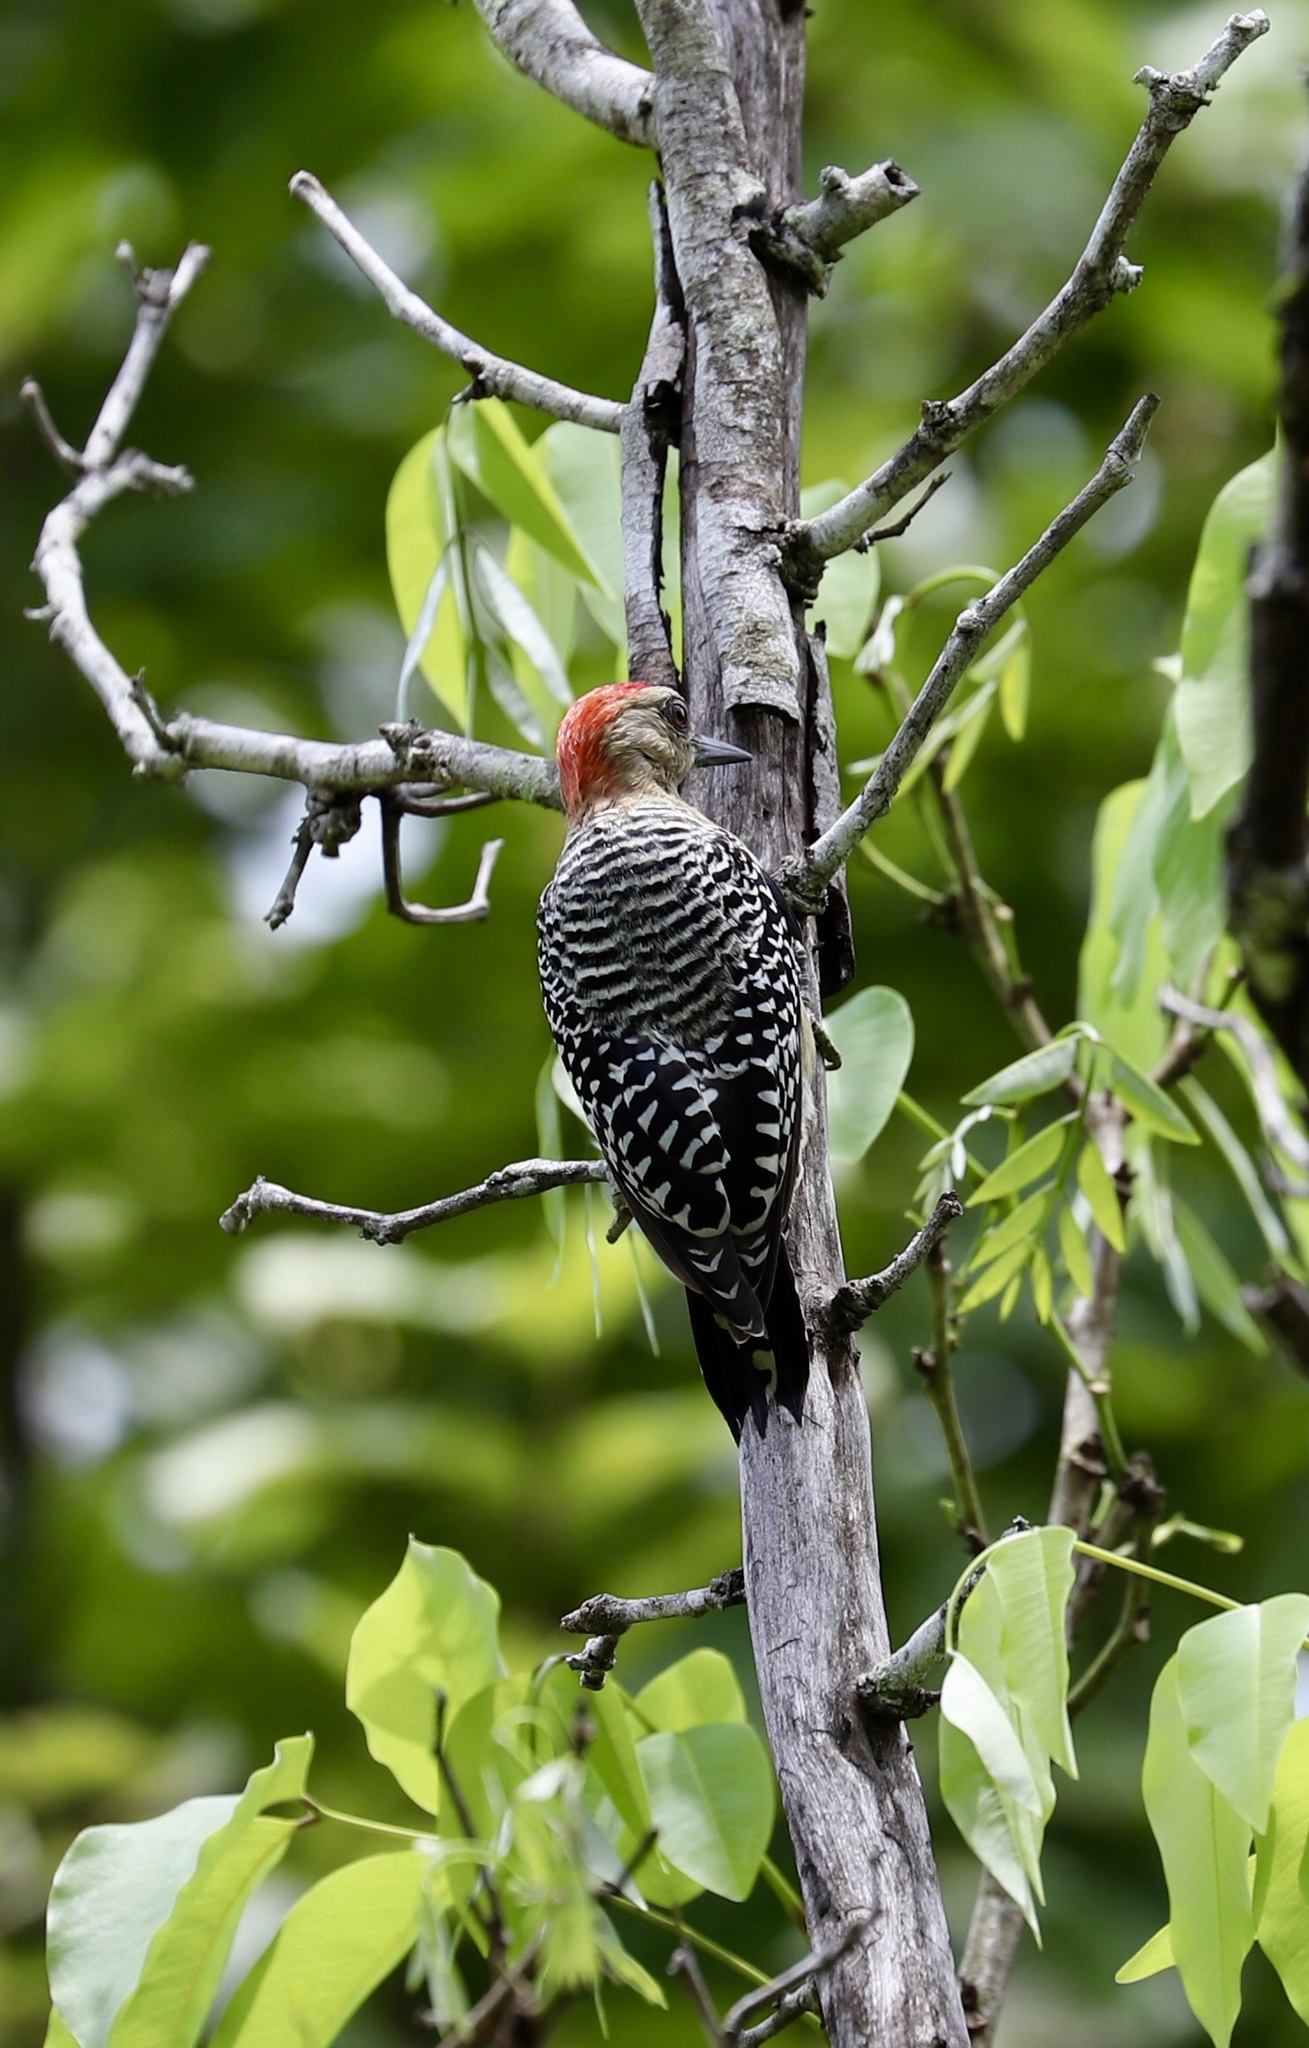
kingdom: Animalia
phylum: Chordata
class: Aves
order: Piciformes
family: Picidae
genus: Melanerpes
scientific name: Melanerpes rubricapillus
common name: Red-crowned woodpecker
